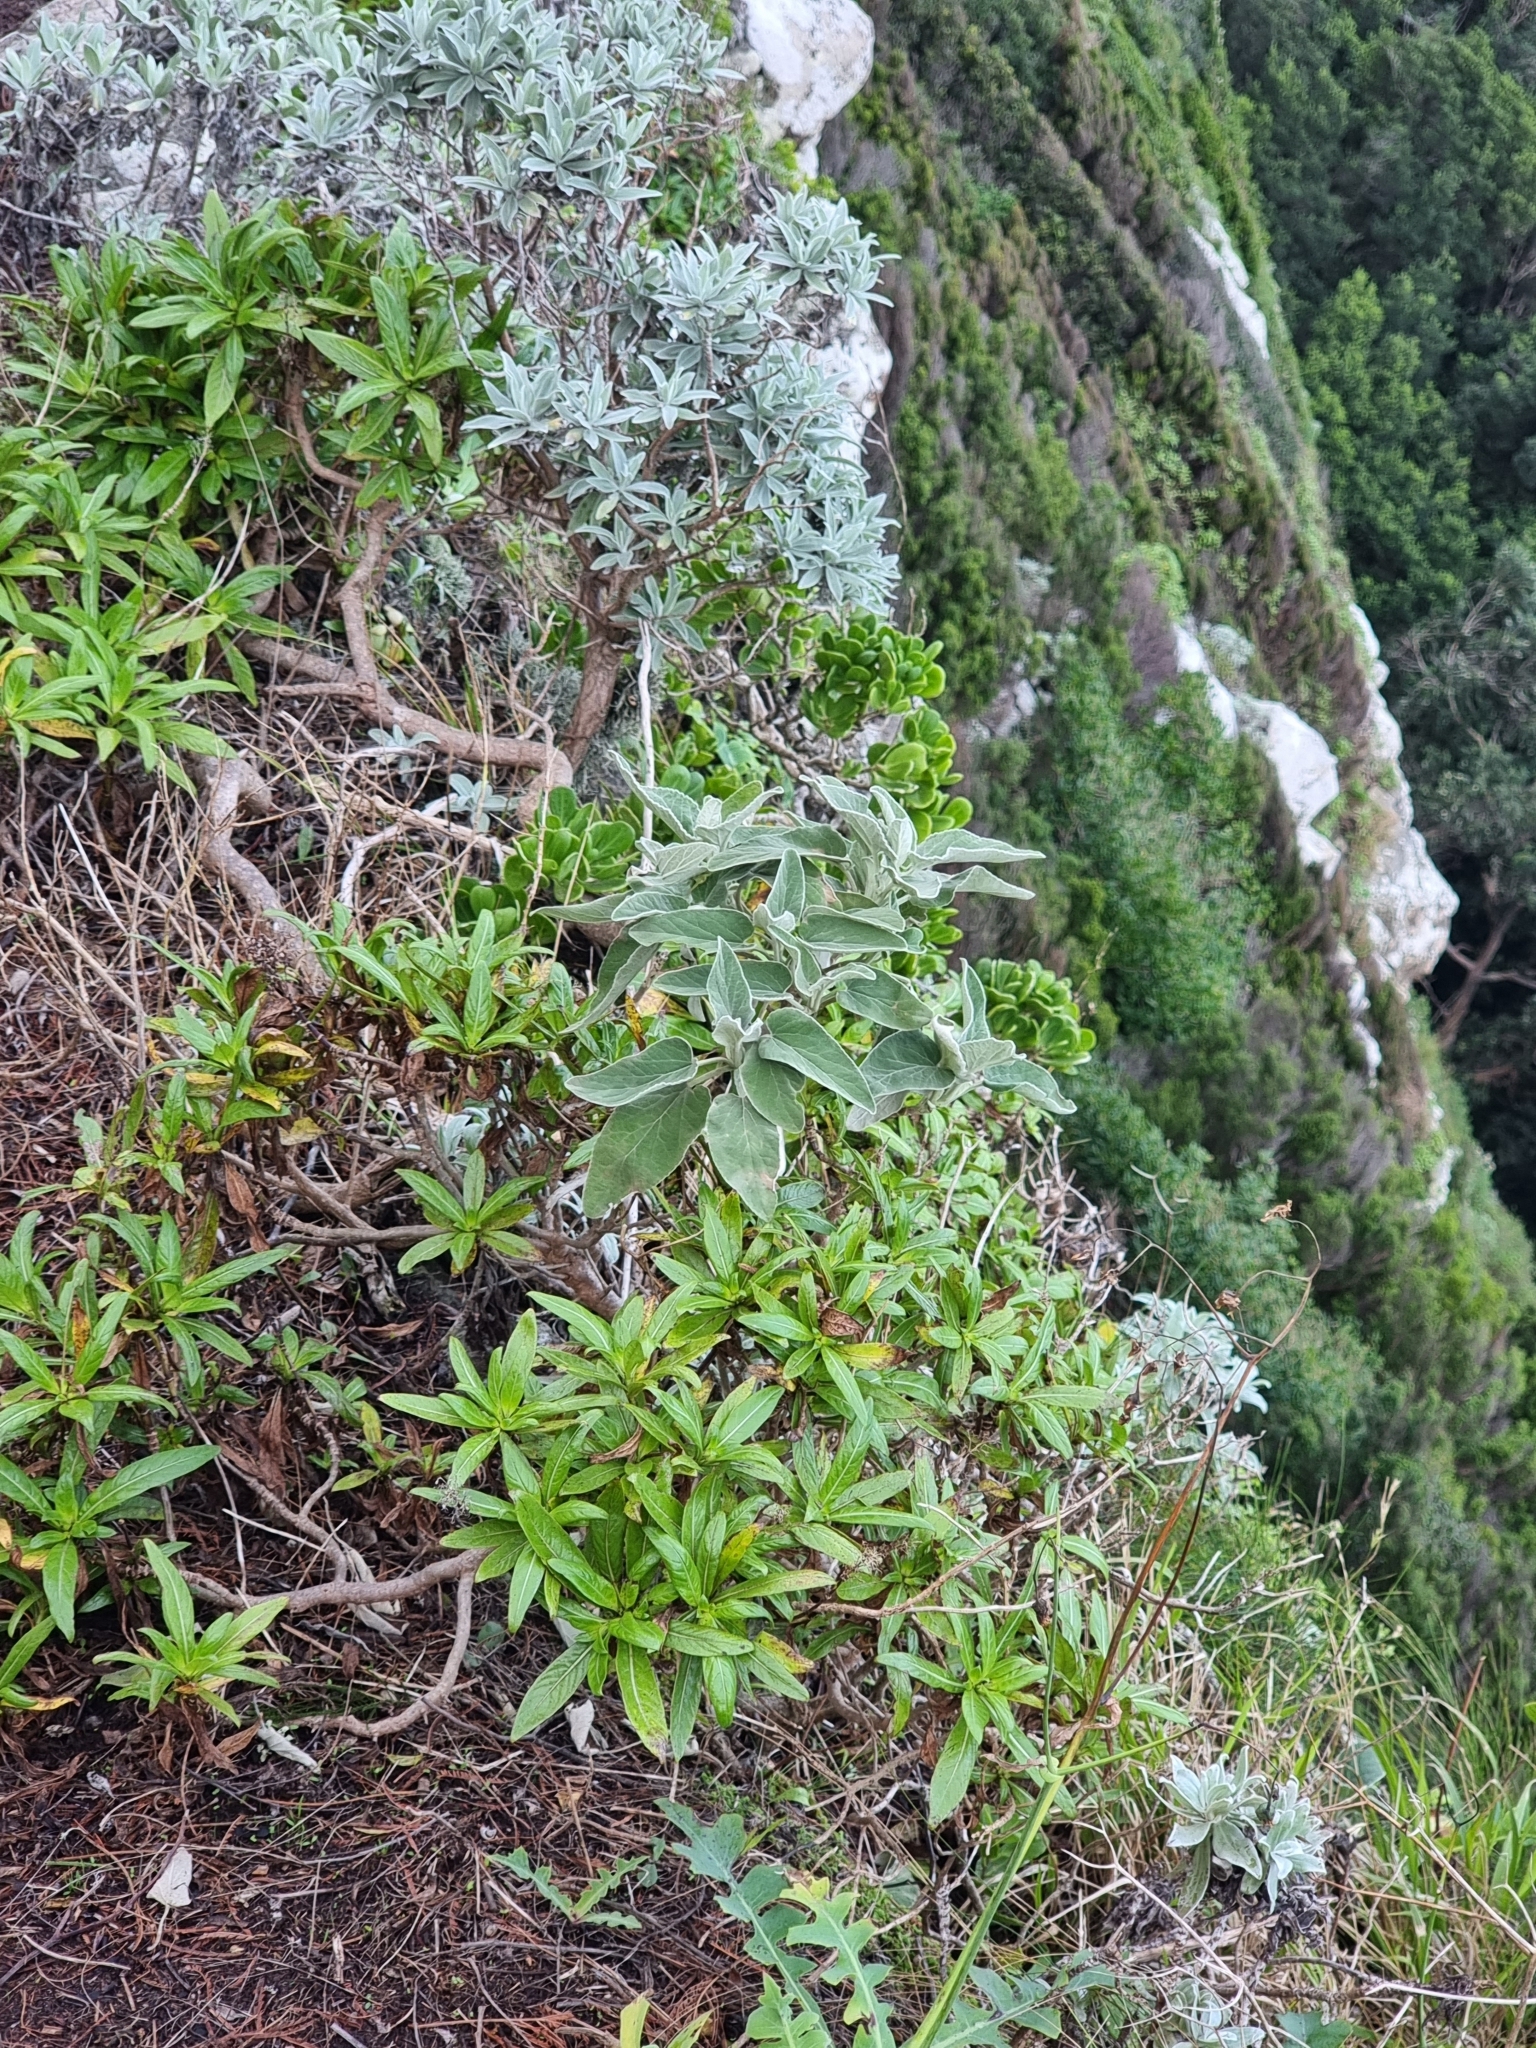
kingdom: Plantae
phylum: Tracheophyta
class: Magnoliopsida
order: Lamiales
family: Lamiaceae
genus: Sideritis
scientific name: Sideritis candicans
